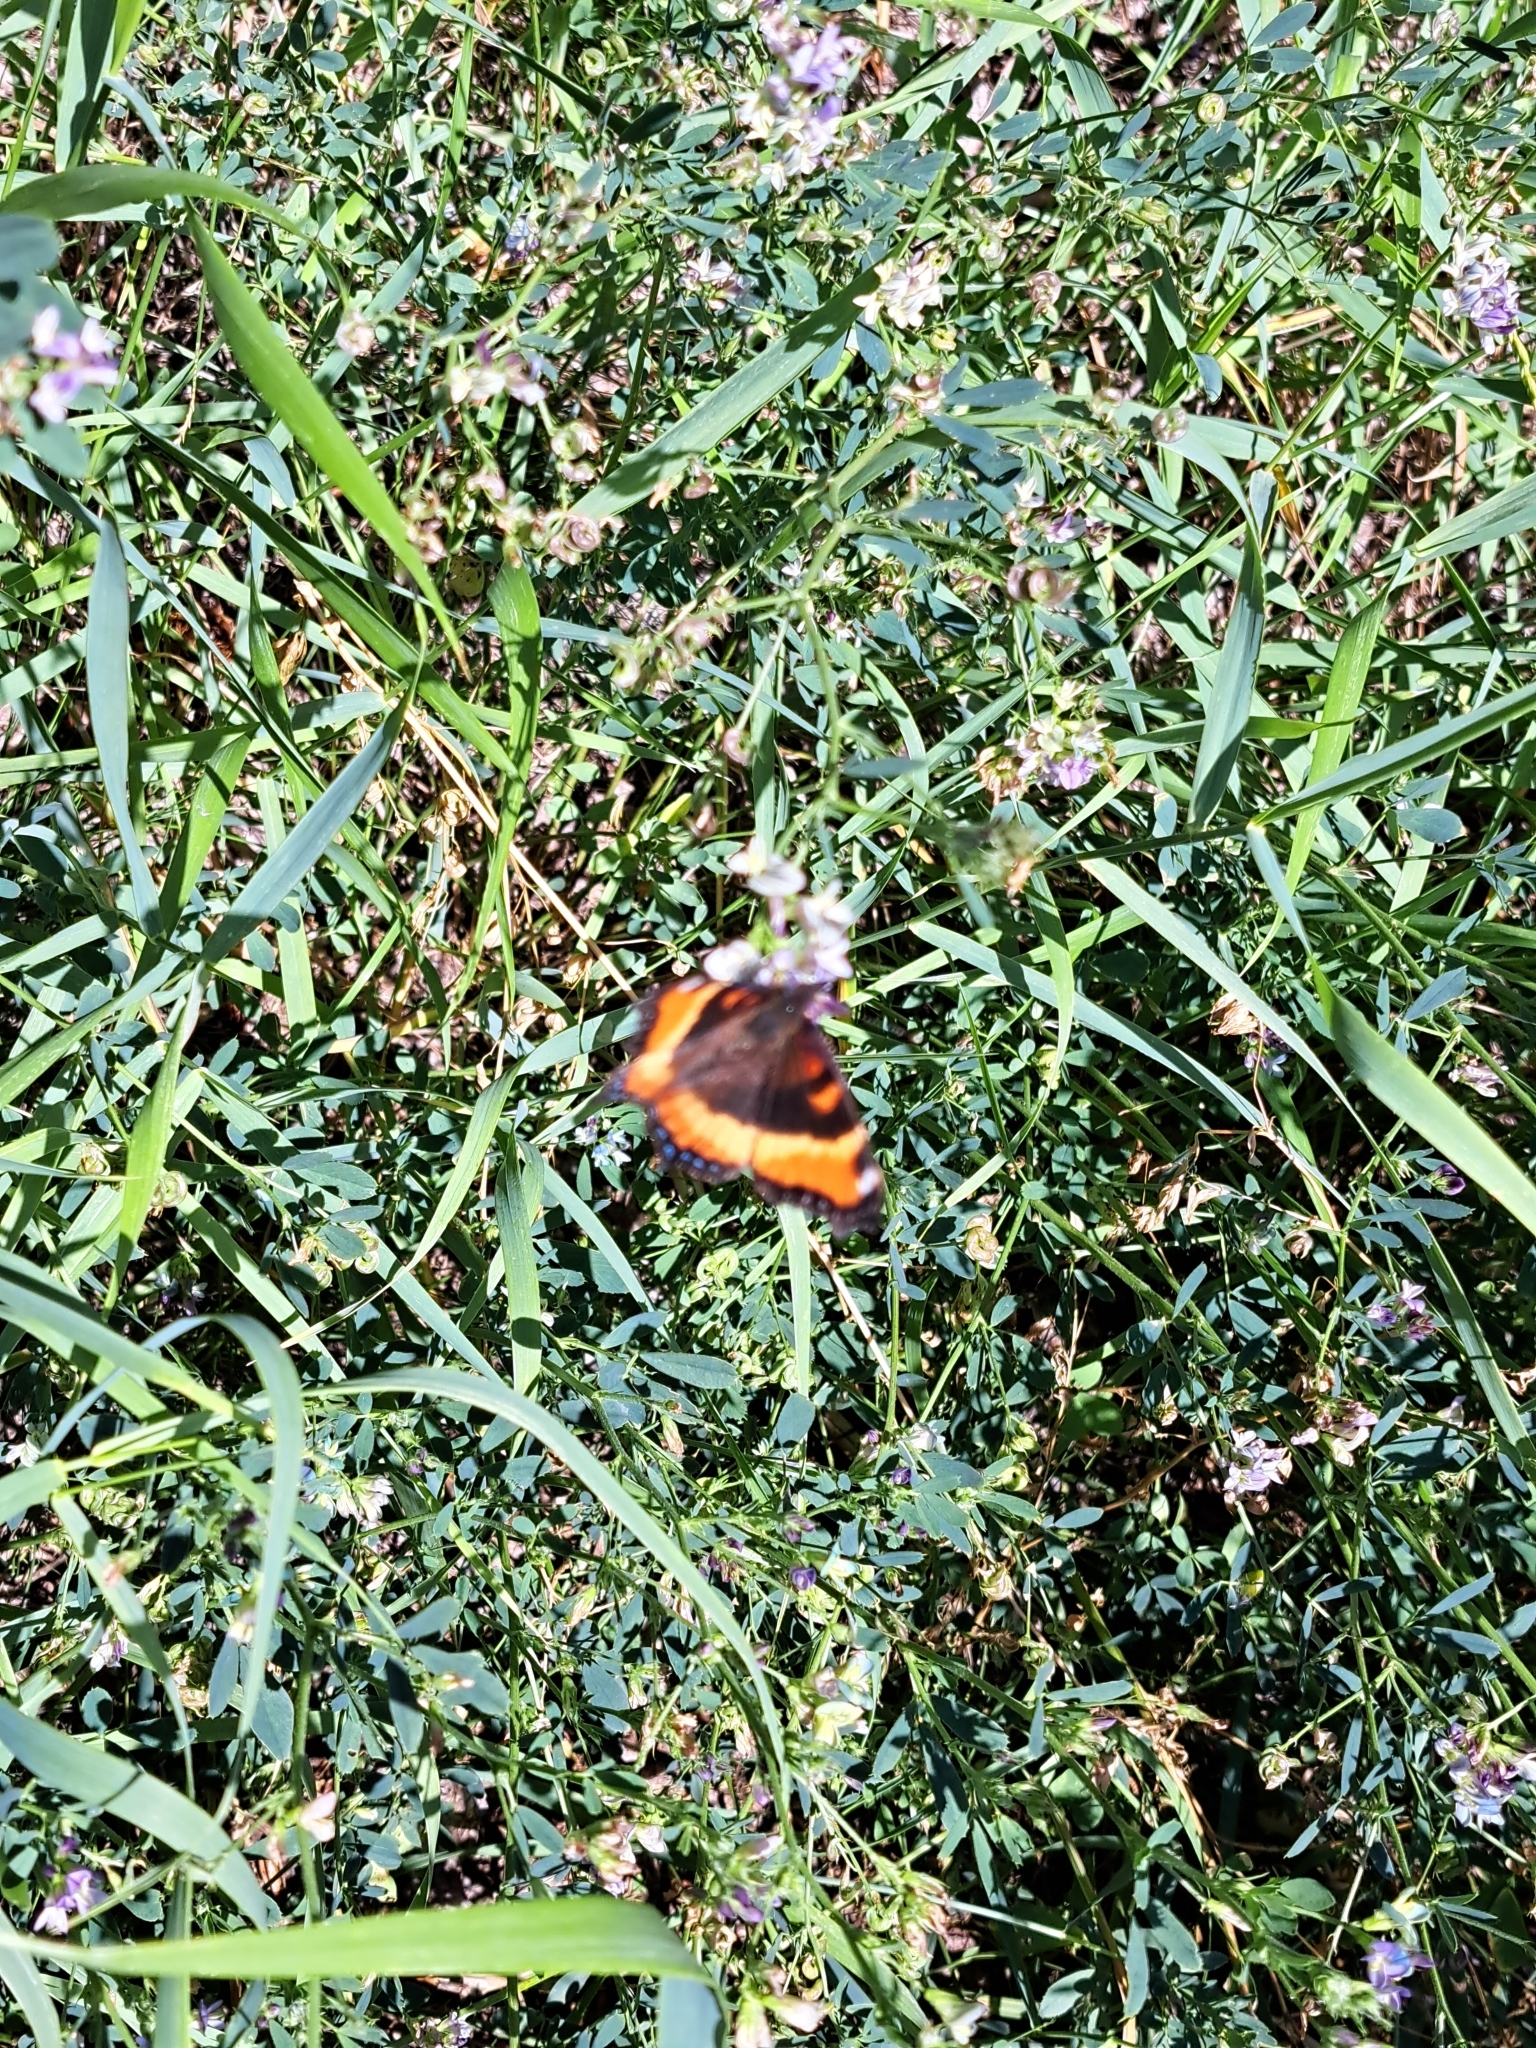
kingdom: Animalia
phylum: Arthropoda
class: Insecta
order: Lepidoptera
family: Nymphalidae
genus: Aglais
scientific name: Aglais milberti
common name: Milbert's tortoiseshell
